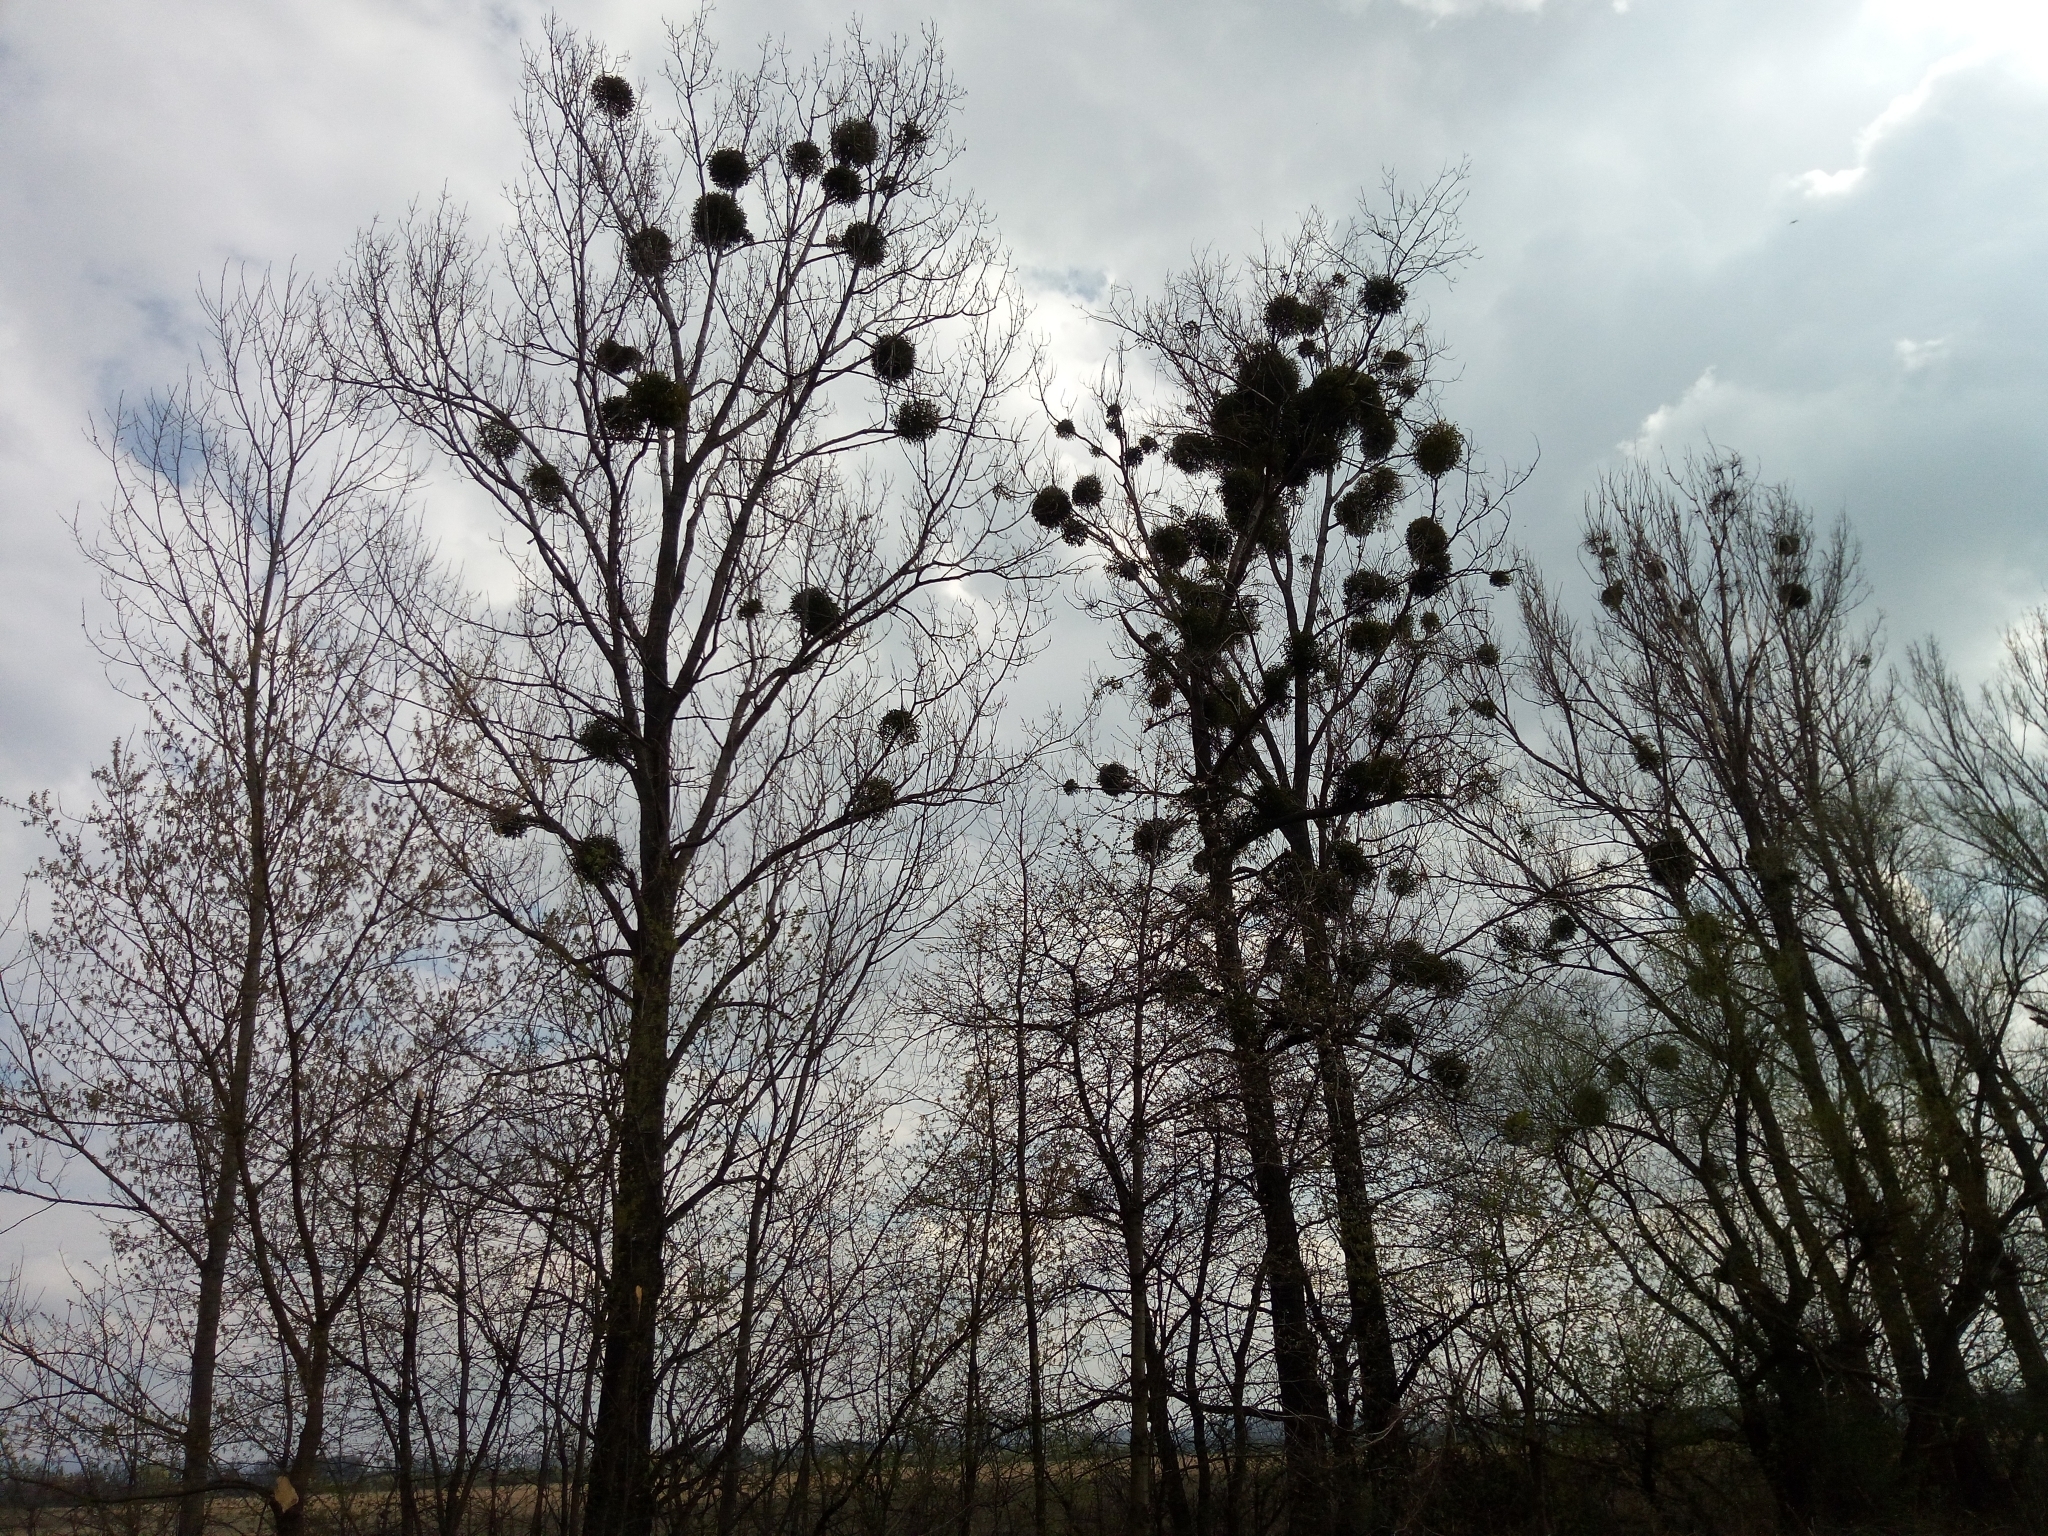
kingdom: Plantae
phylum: Tracheophyta
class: Magnoliopsida
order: Santalales
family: Viscaceae
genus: Viscum
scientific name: Viscum album
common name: Mistletoe
